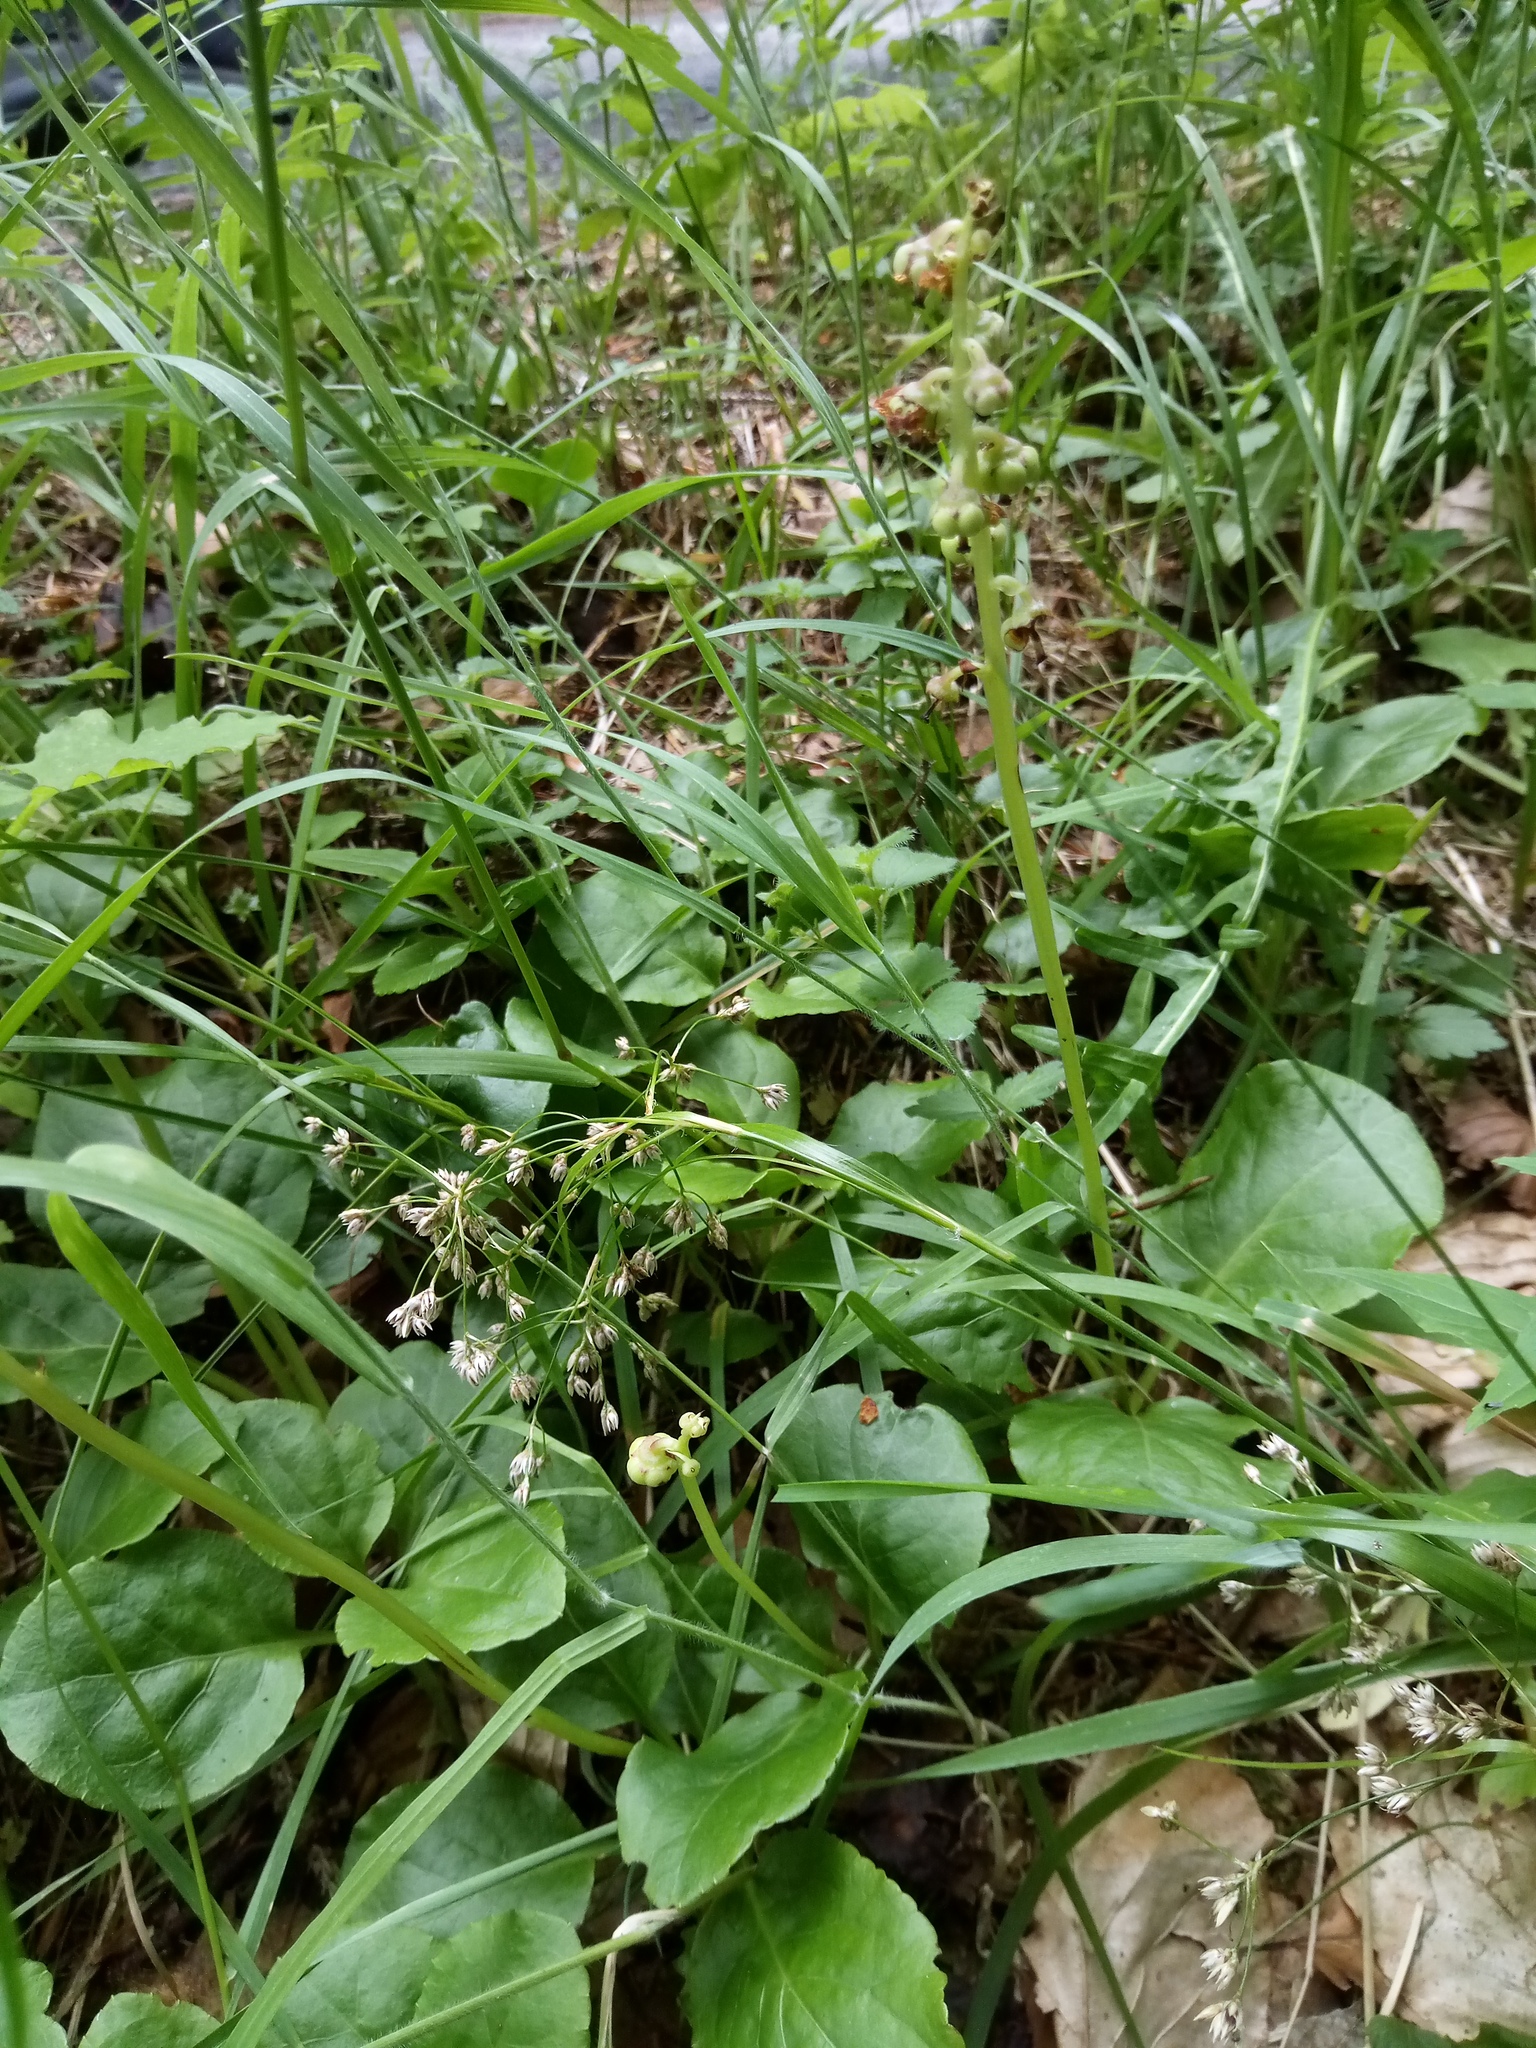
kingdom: Plantae
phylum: Tracheophyta
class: Magnoliopsida
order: Ericales
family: Ericaceae
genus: Pyrola
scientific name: Pyrola minor
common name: Common wintergreen
